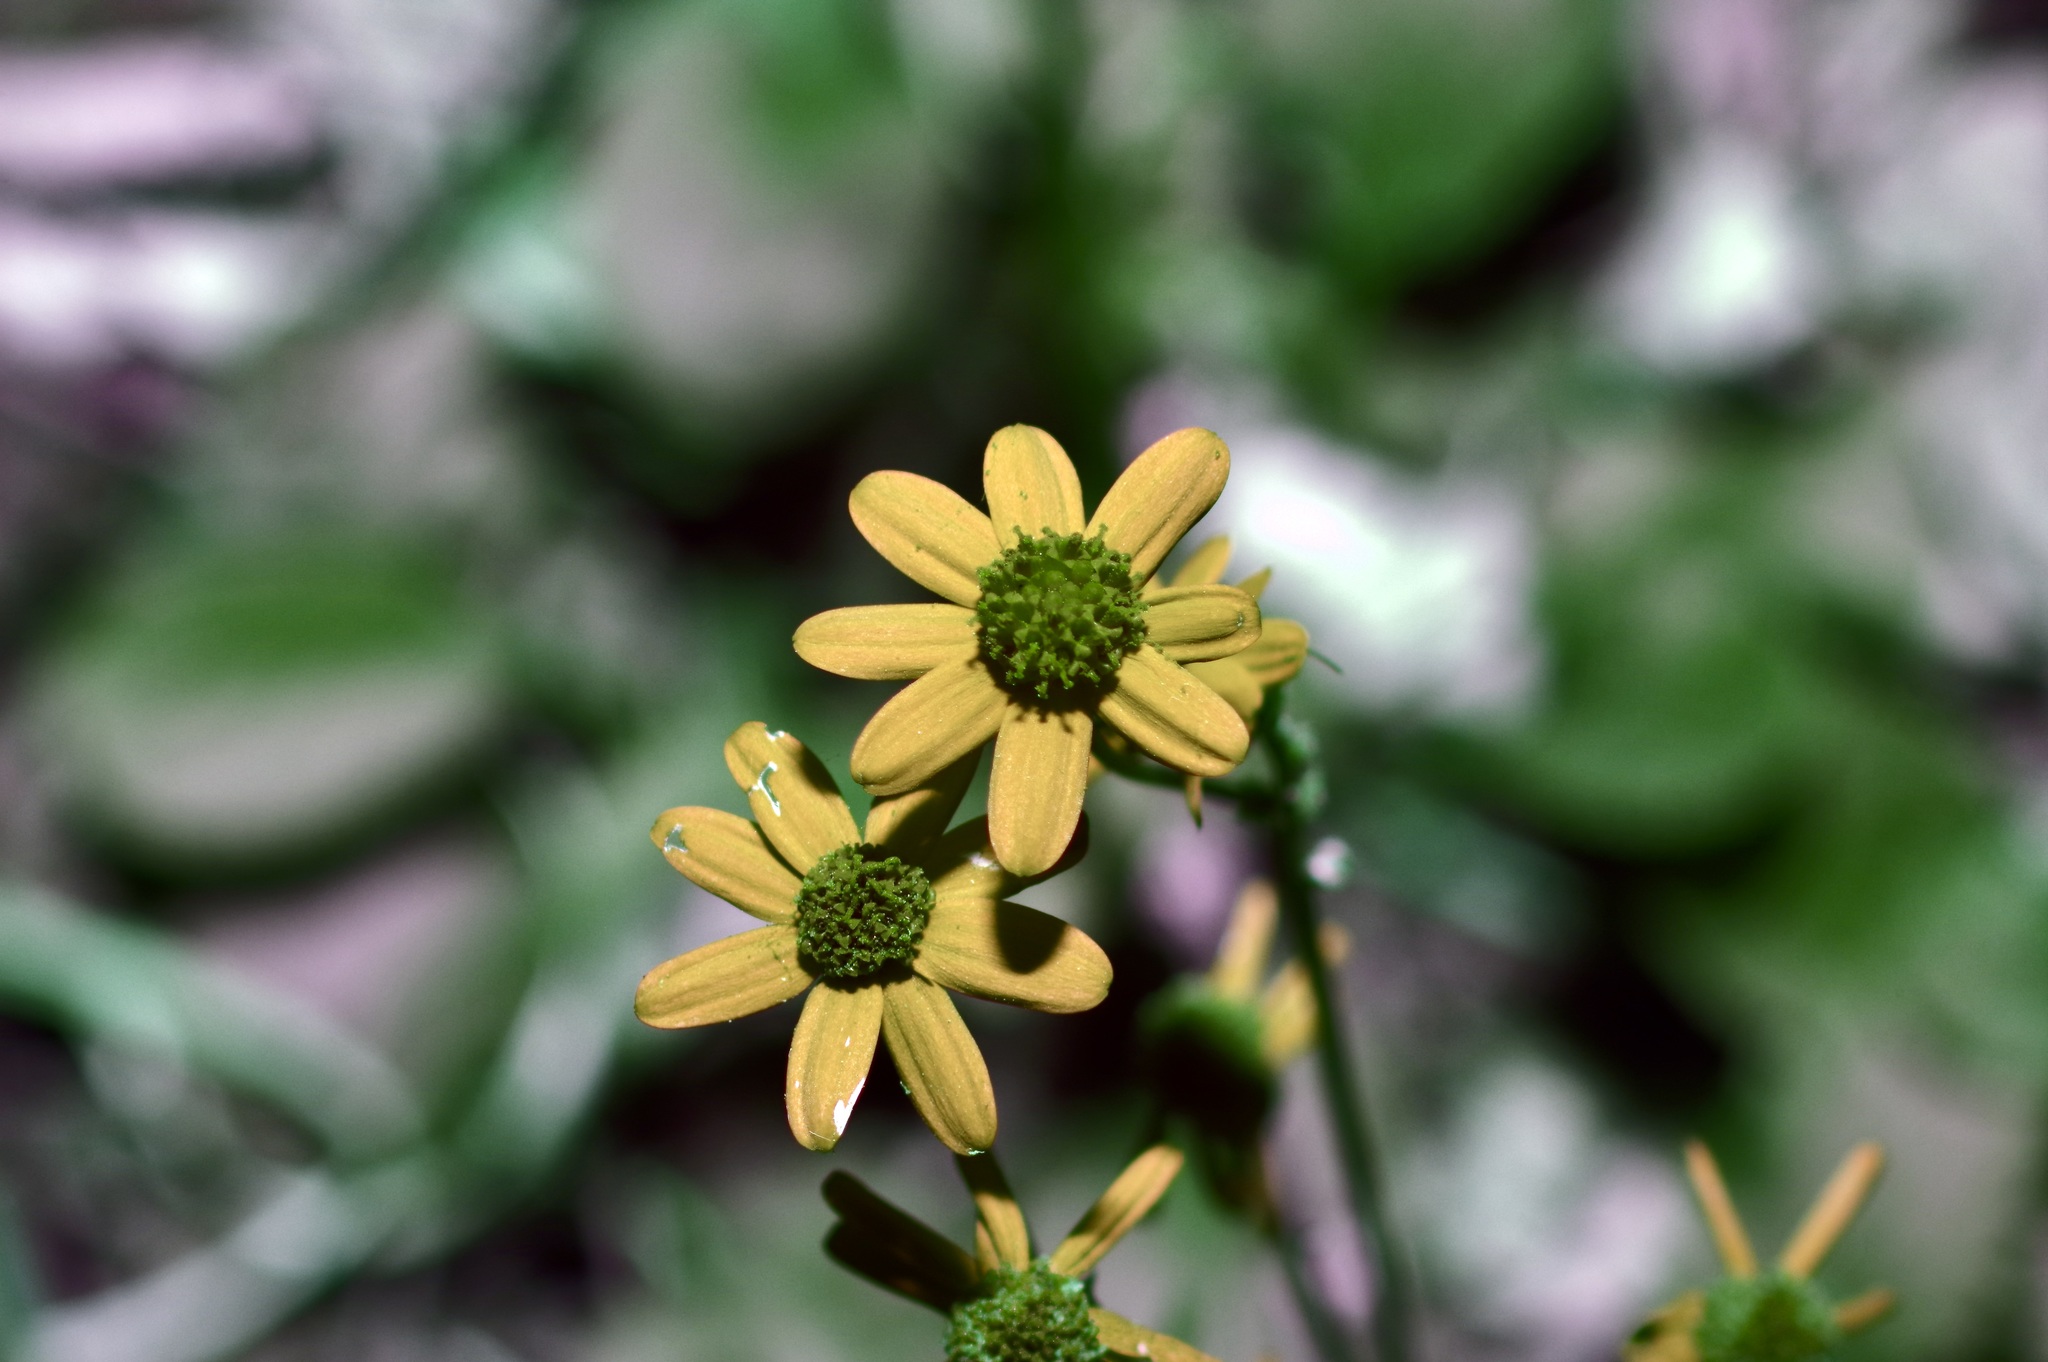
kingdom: Plantae
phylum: Tracheophyta
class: Magnoliopsida
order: Asterales
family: Asteraceae
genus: Packera
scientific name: Packera obovata
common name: Round-leaf ragwort
